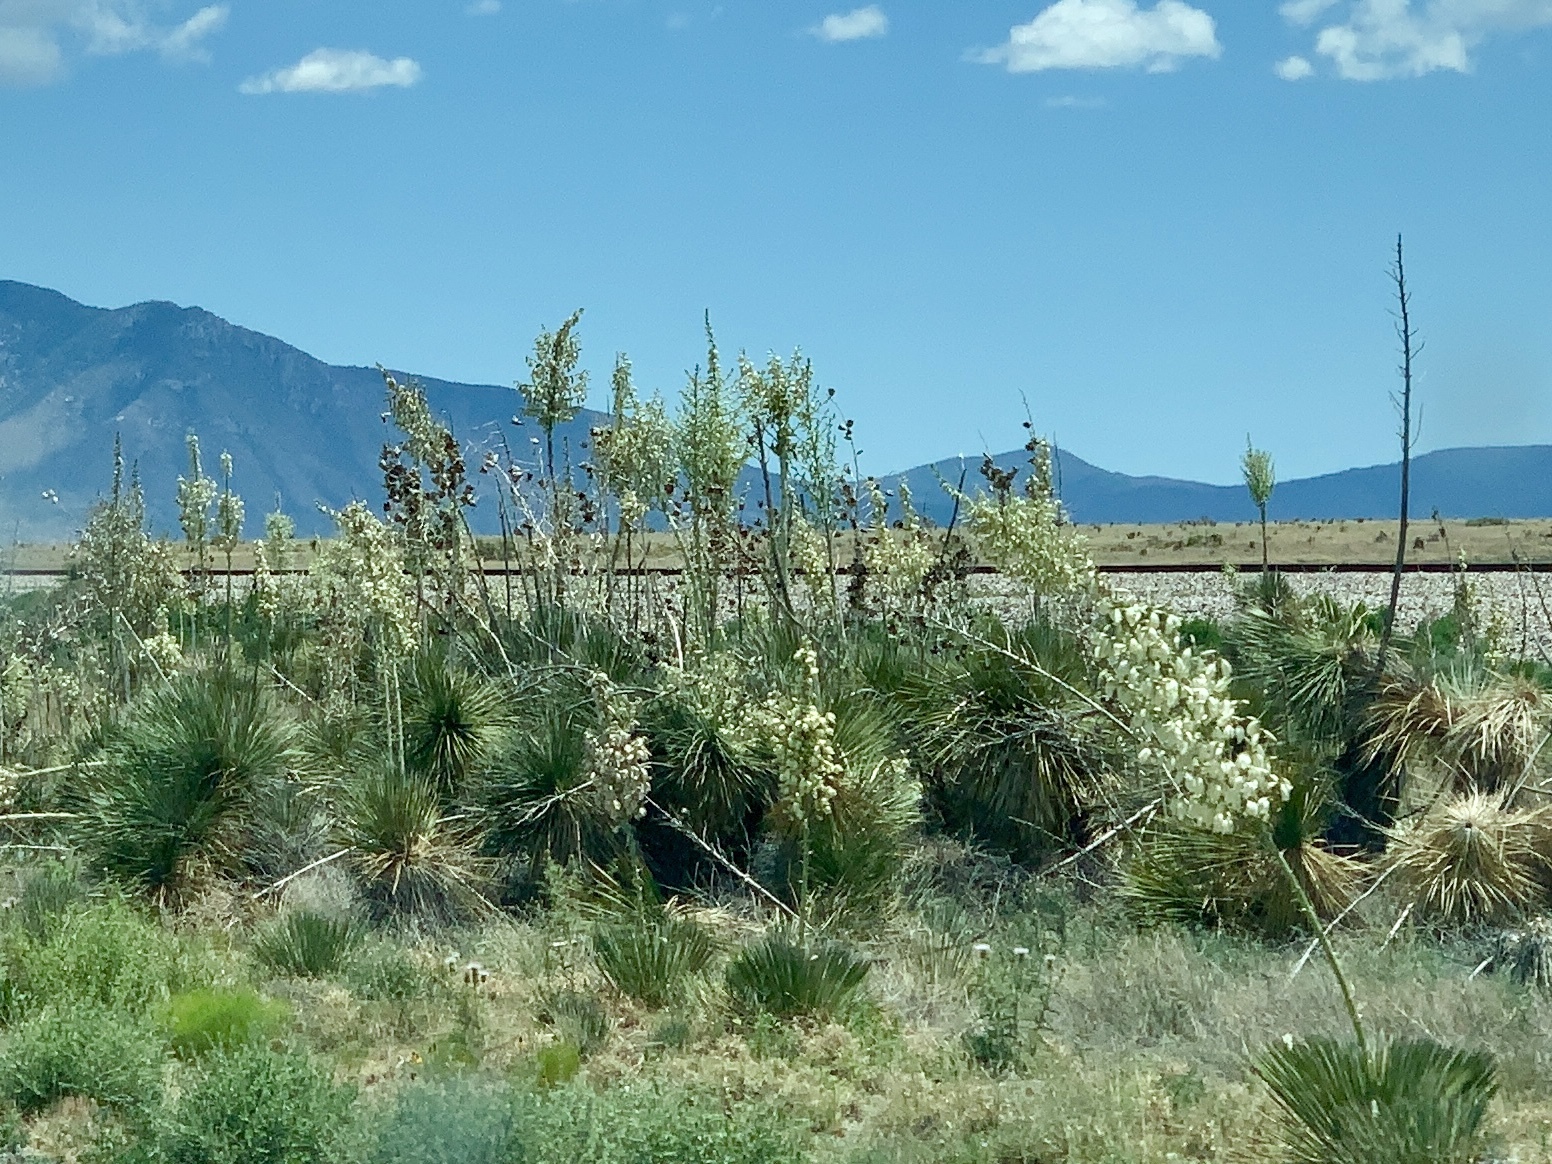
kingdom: Plantae
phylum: Tracheophyta
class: Liliopsida
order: Asparagales
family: Asparagaceae
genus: Yucca
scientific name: Yucca elata
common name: Palmella
